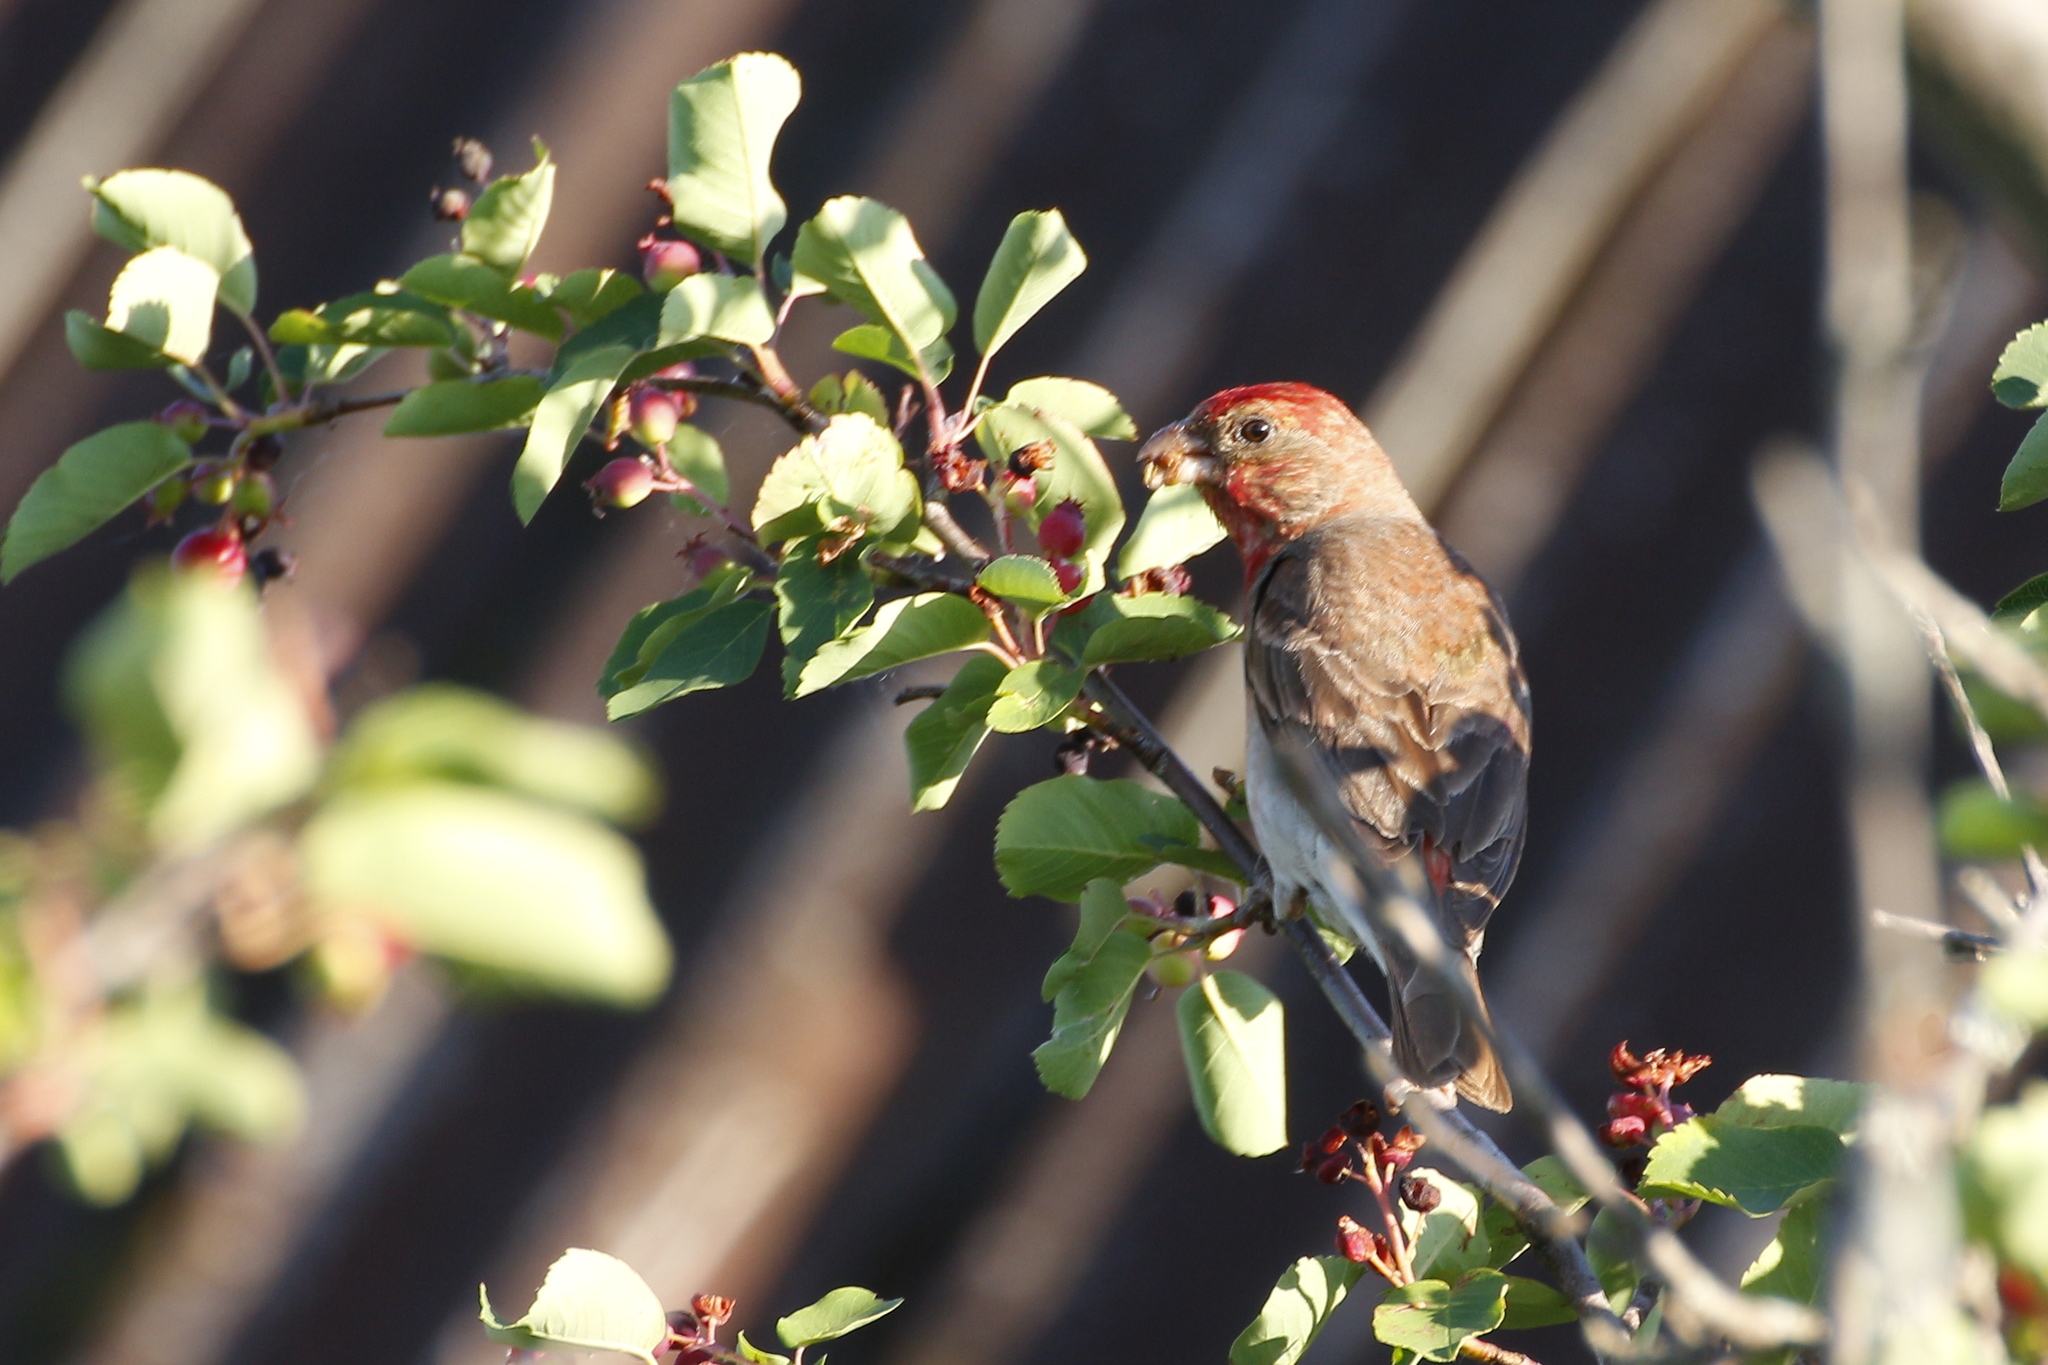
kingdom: Animalia
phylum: Chordata
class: Aves
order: Passeriformes
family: Fringillidae
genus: Carpodacus
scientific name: Carpodacus erythrinus
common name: Common rosefinch
